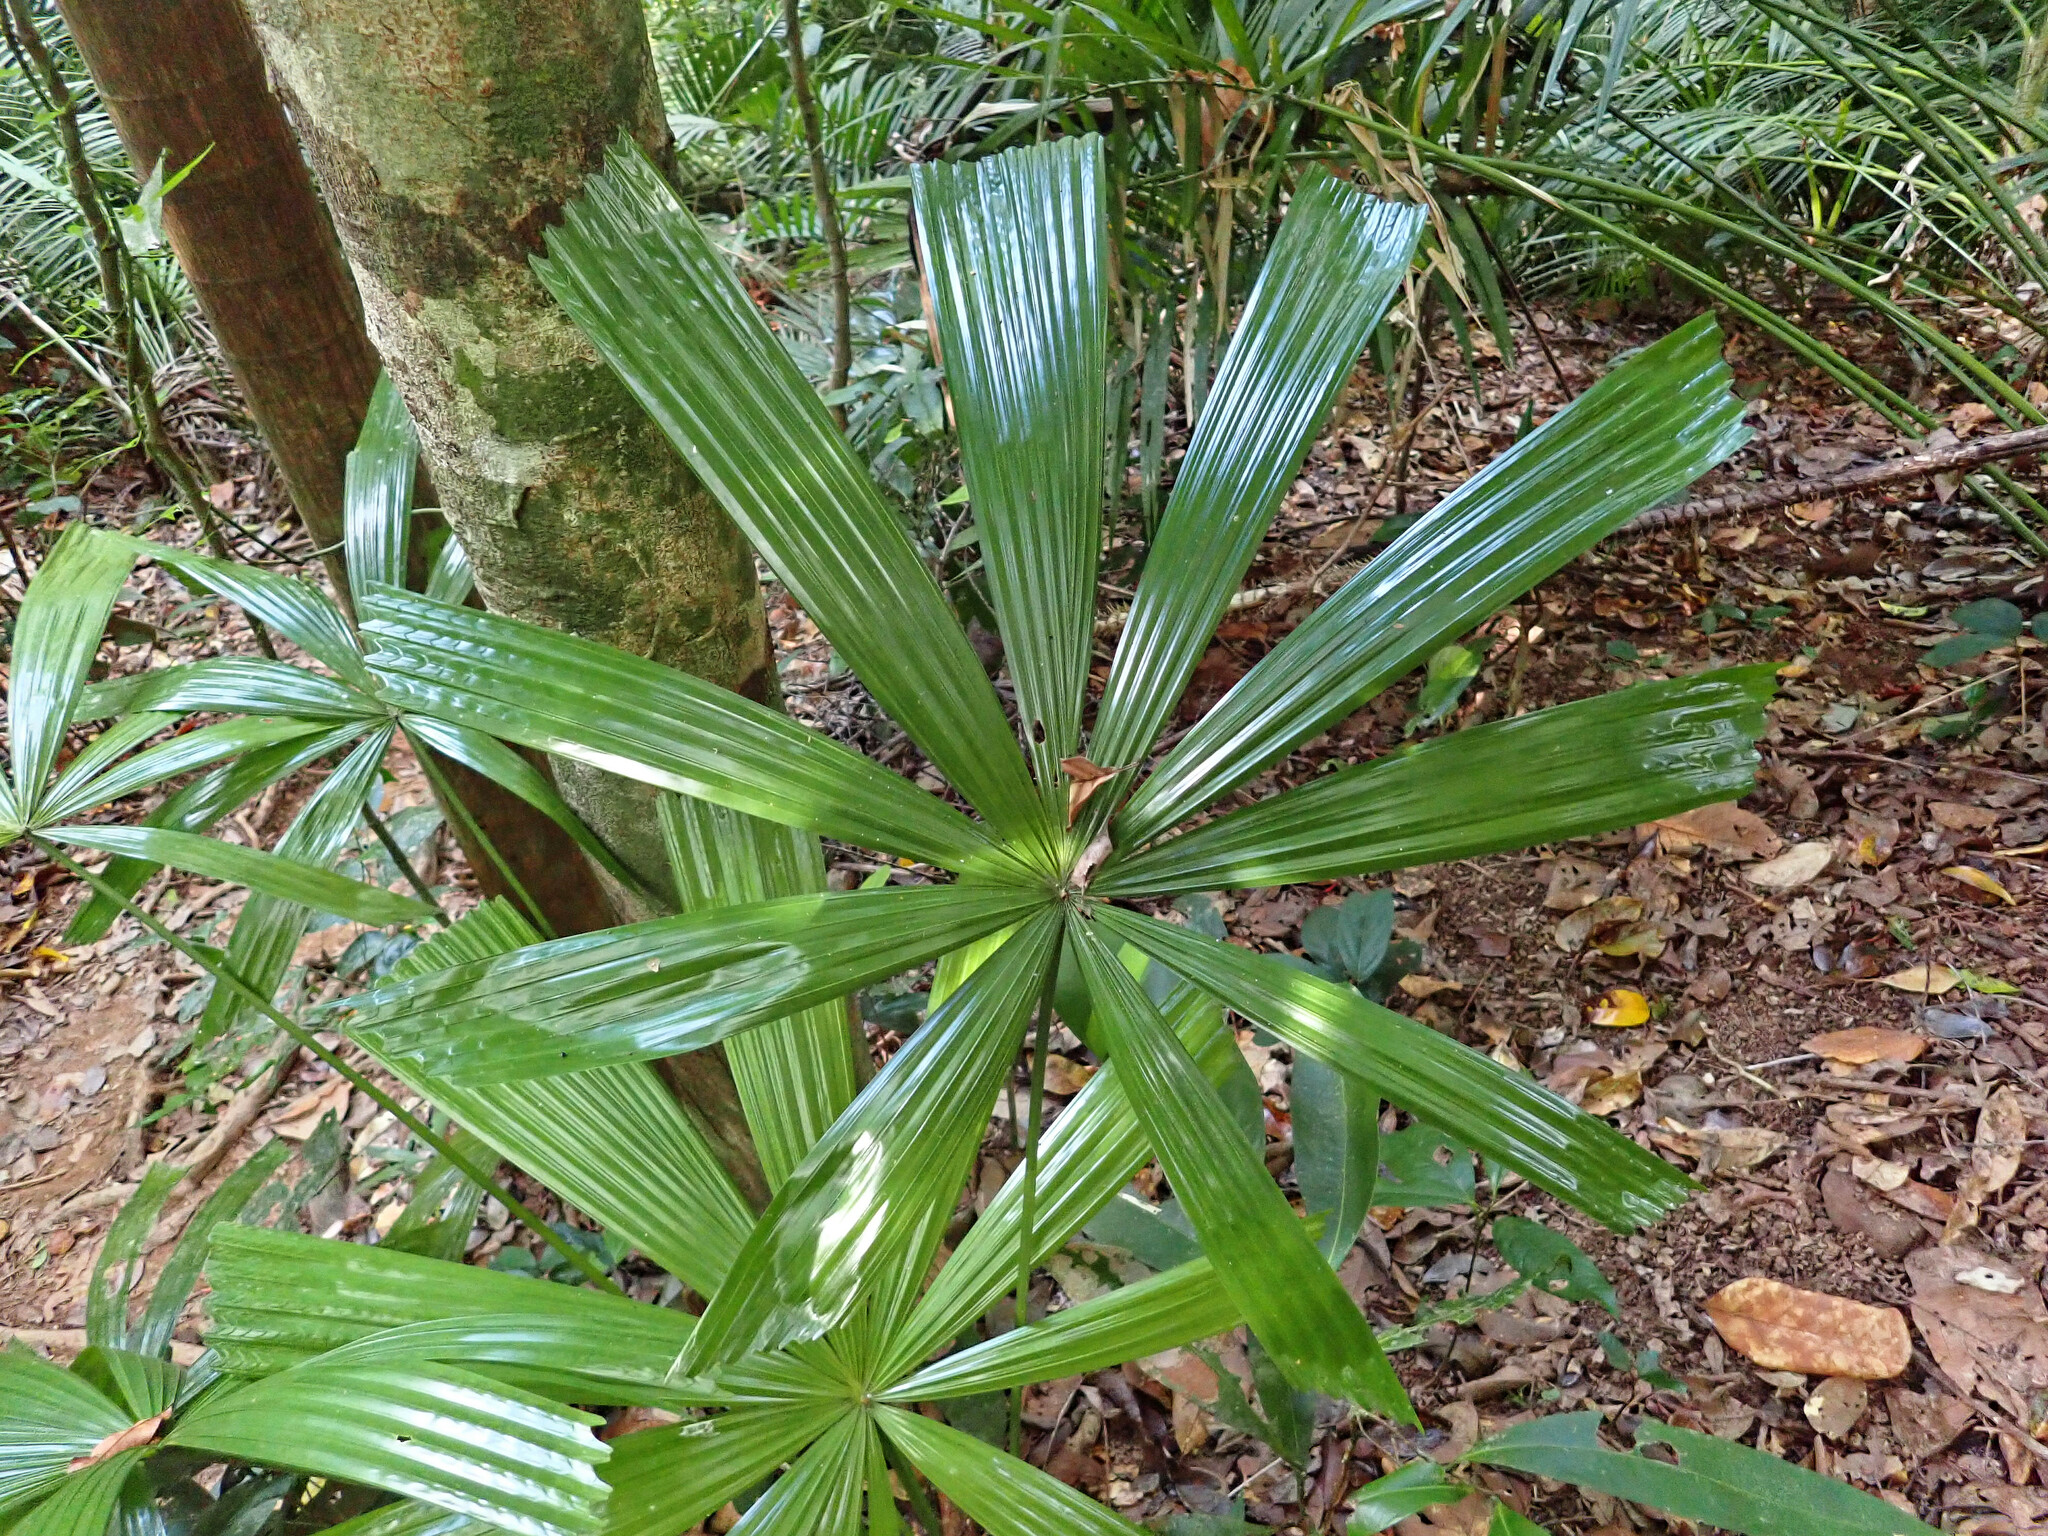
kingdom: Plantae
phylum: Tracheophyta
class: Liliopsida
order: Arecales
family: Arecaceae
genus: Licuala
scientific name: Licuala ramsayi
